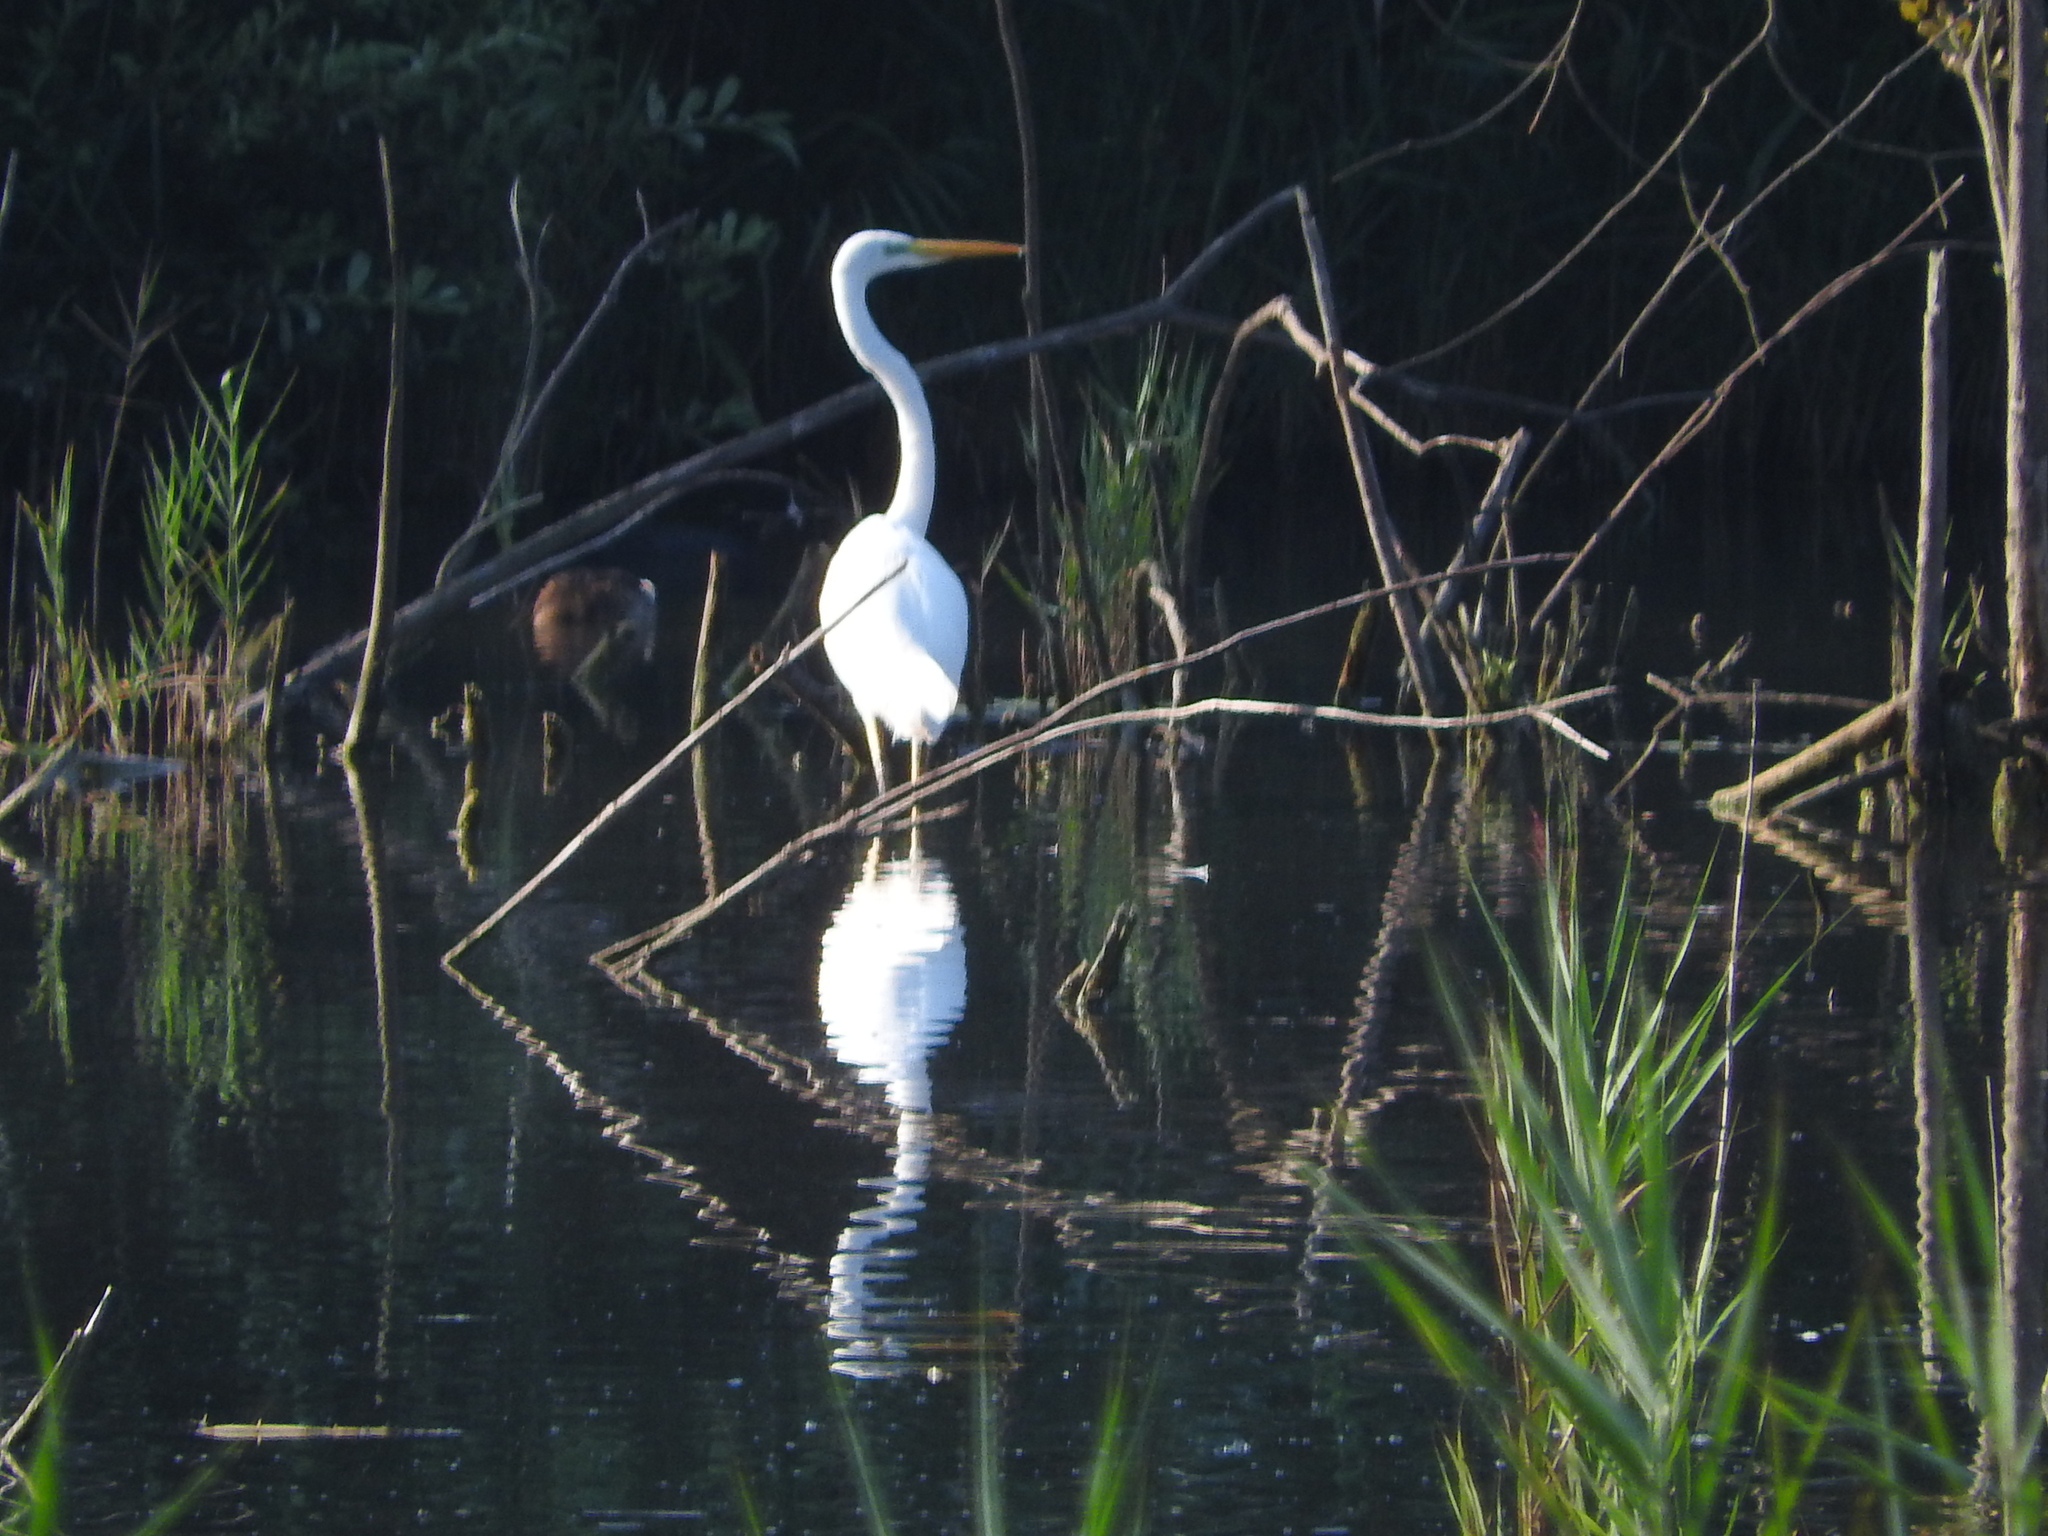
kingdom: Animalia
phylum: Chordata
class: Aves
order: Pelecaniformes
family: Ardeidae
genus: Ardea
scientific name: Ardea alba
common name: Great egret
